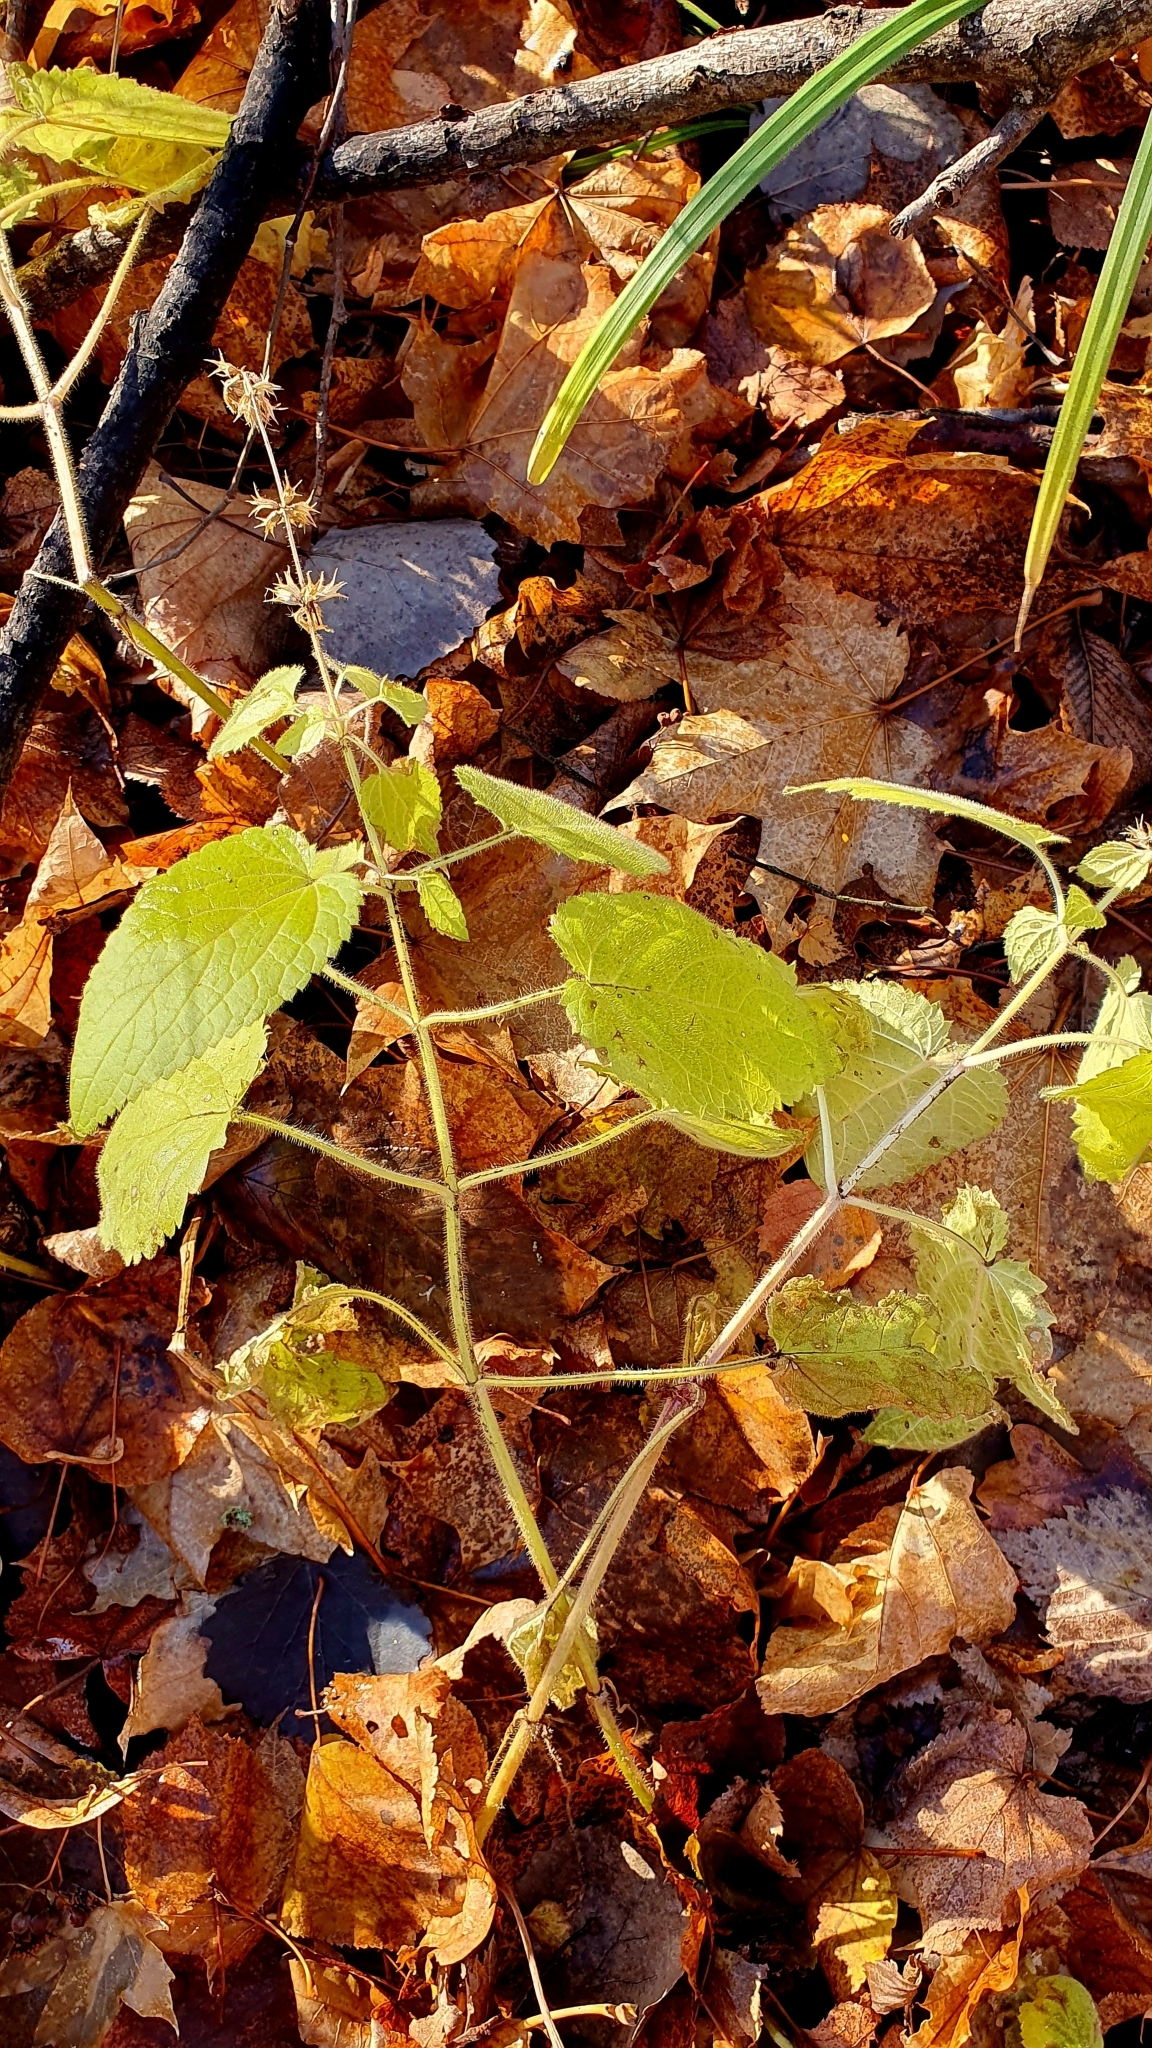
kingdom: Plantae
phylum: Tracheophyta
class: Magnoliopsida
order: Lamiales
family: Lamiaceae
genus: Stachys
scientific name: Stachys sylvatica
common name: Hedge woundwort
